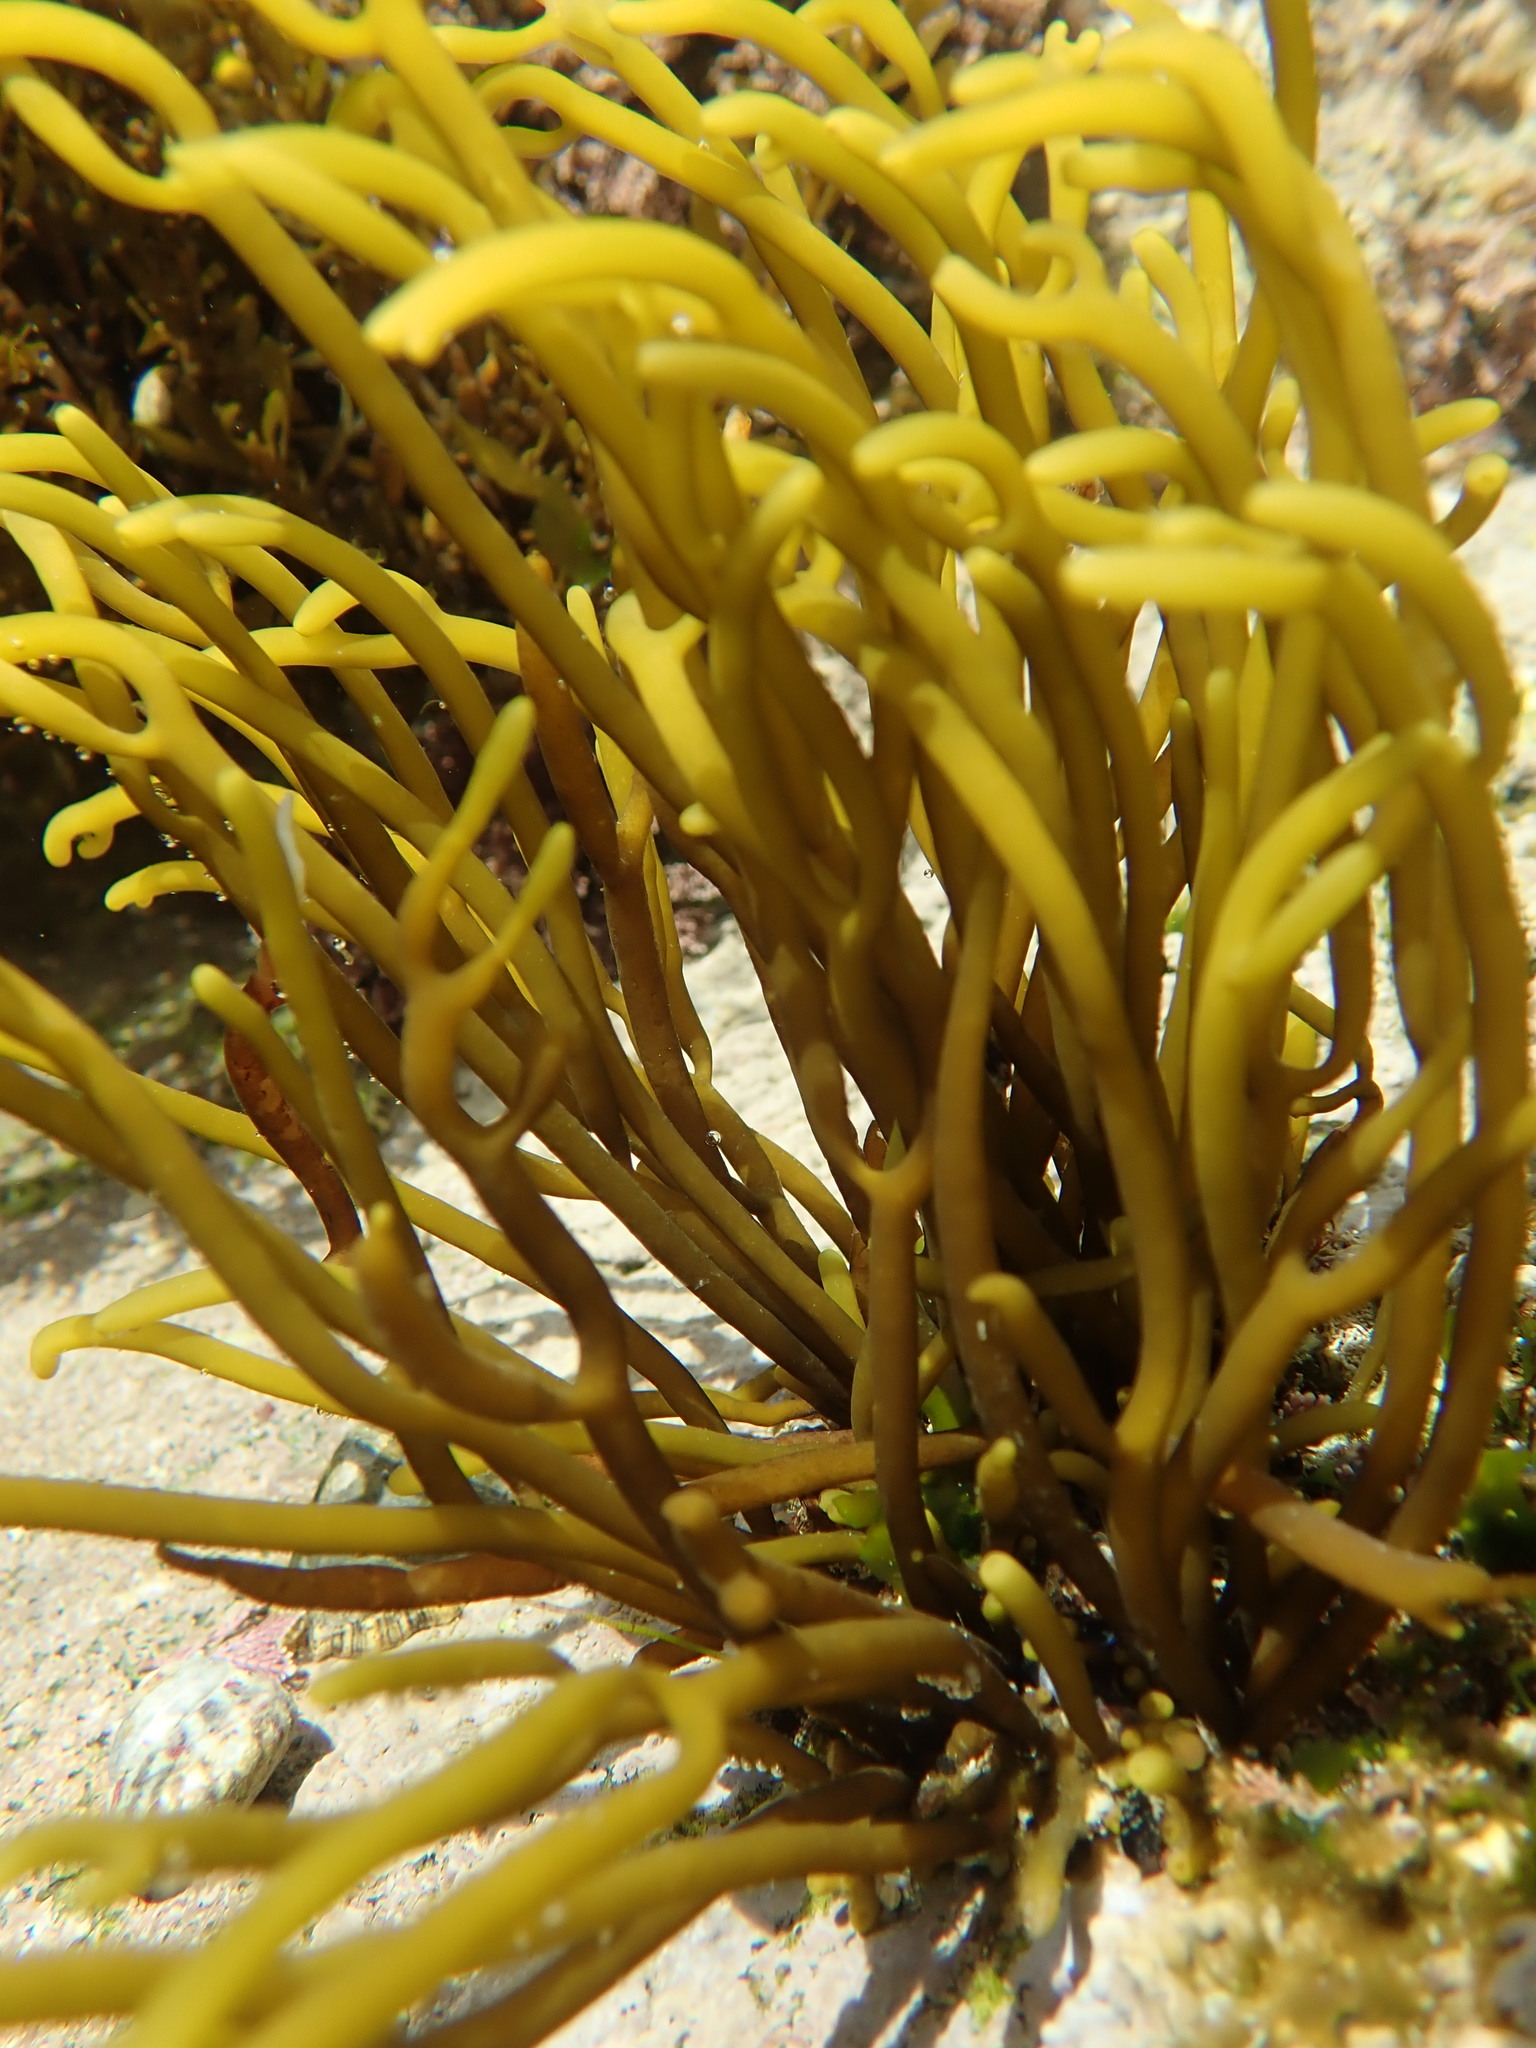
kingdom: Chromista
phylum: Ochrophyta
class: Phaeophyceae
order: Fucales
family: Sargassaceae
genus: Bifurcaria
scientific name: Bifurcaria bifurcata
